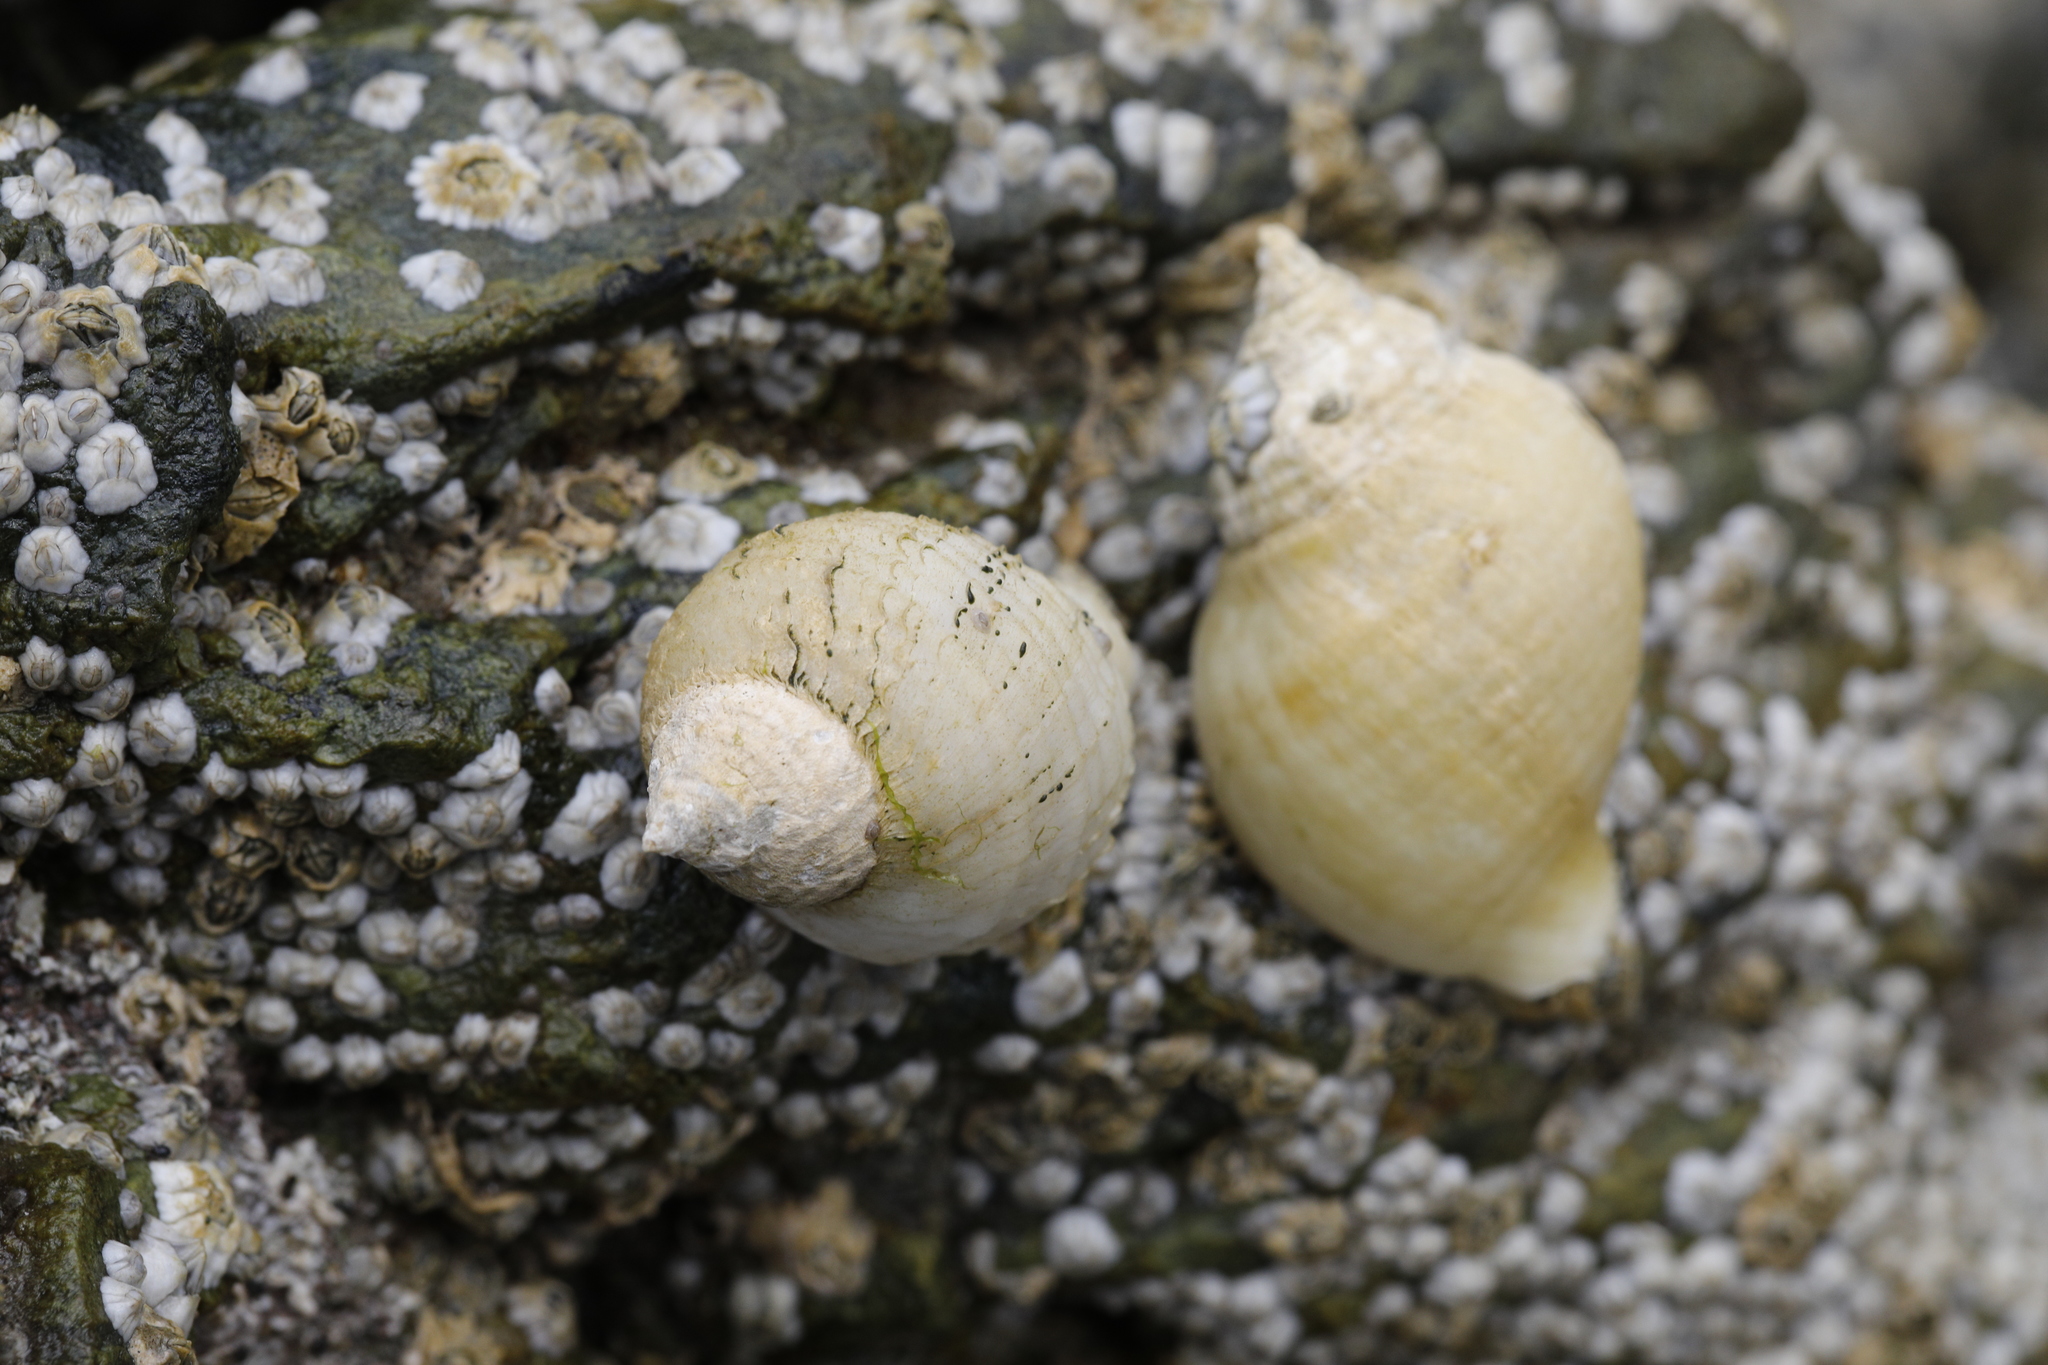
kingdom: Animalia
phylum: Mollusca
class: Gastropoda
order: Neogastropoda
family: Muricidae
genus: Nucella
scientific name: Nucella lapillus
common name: Dog whelk
